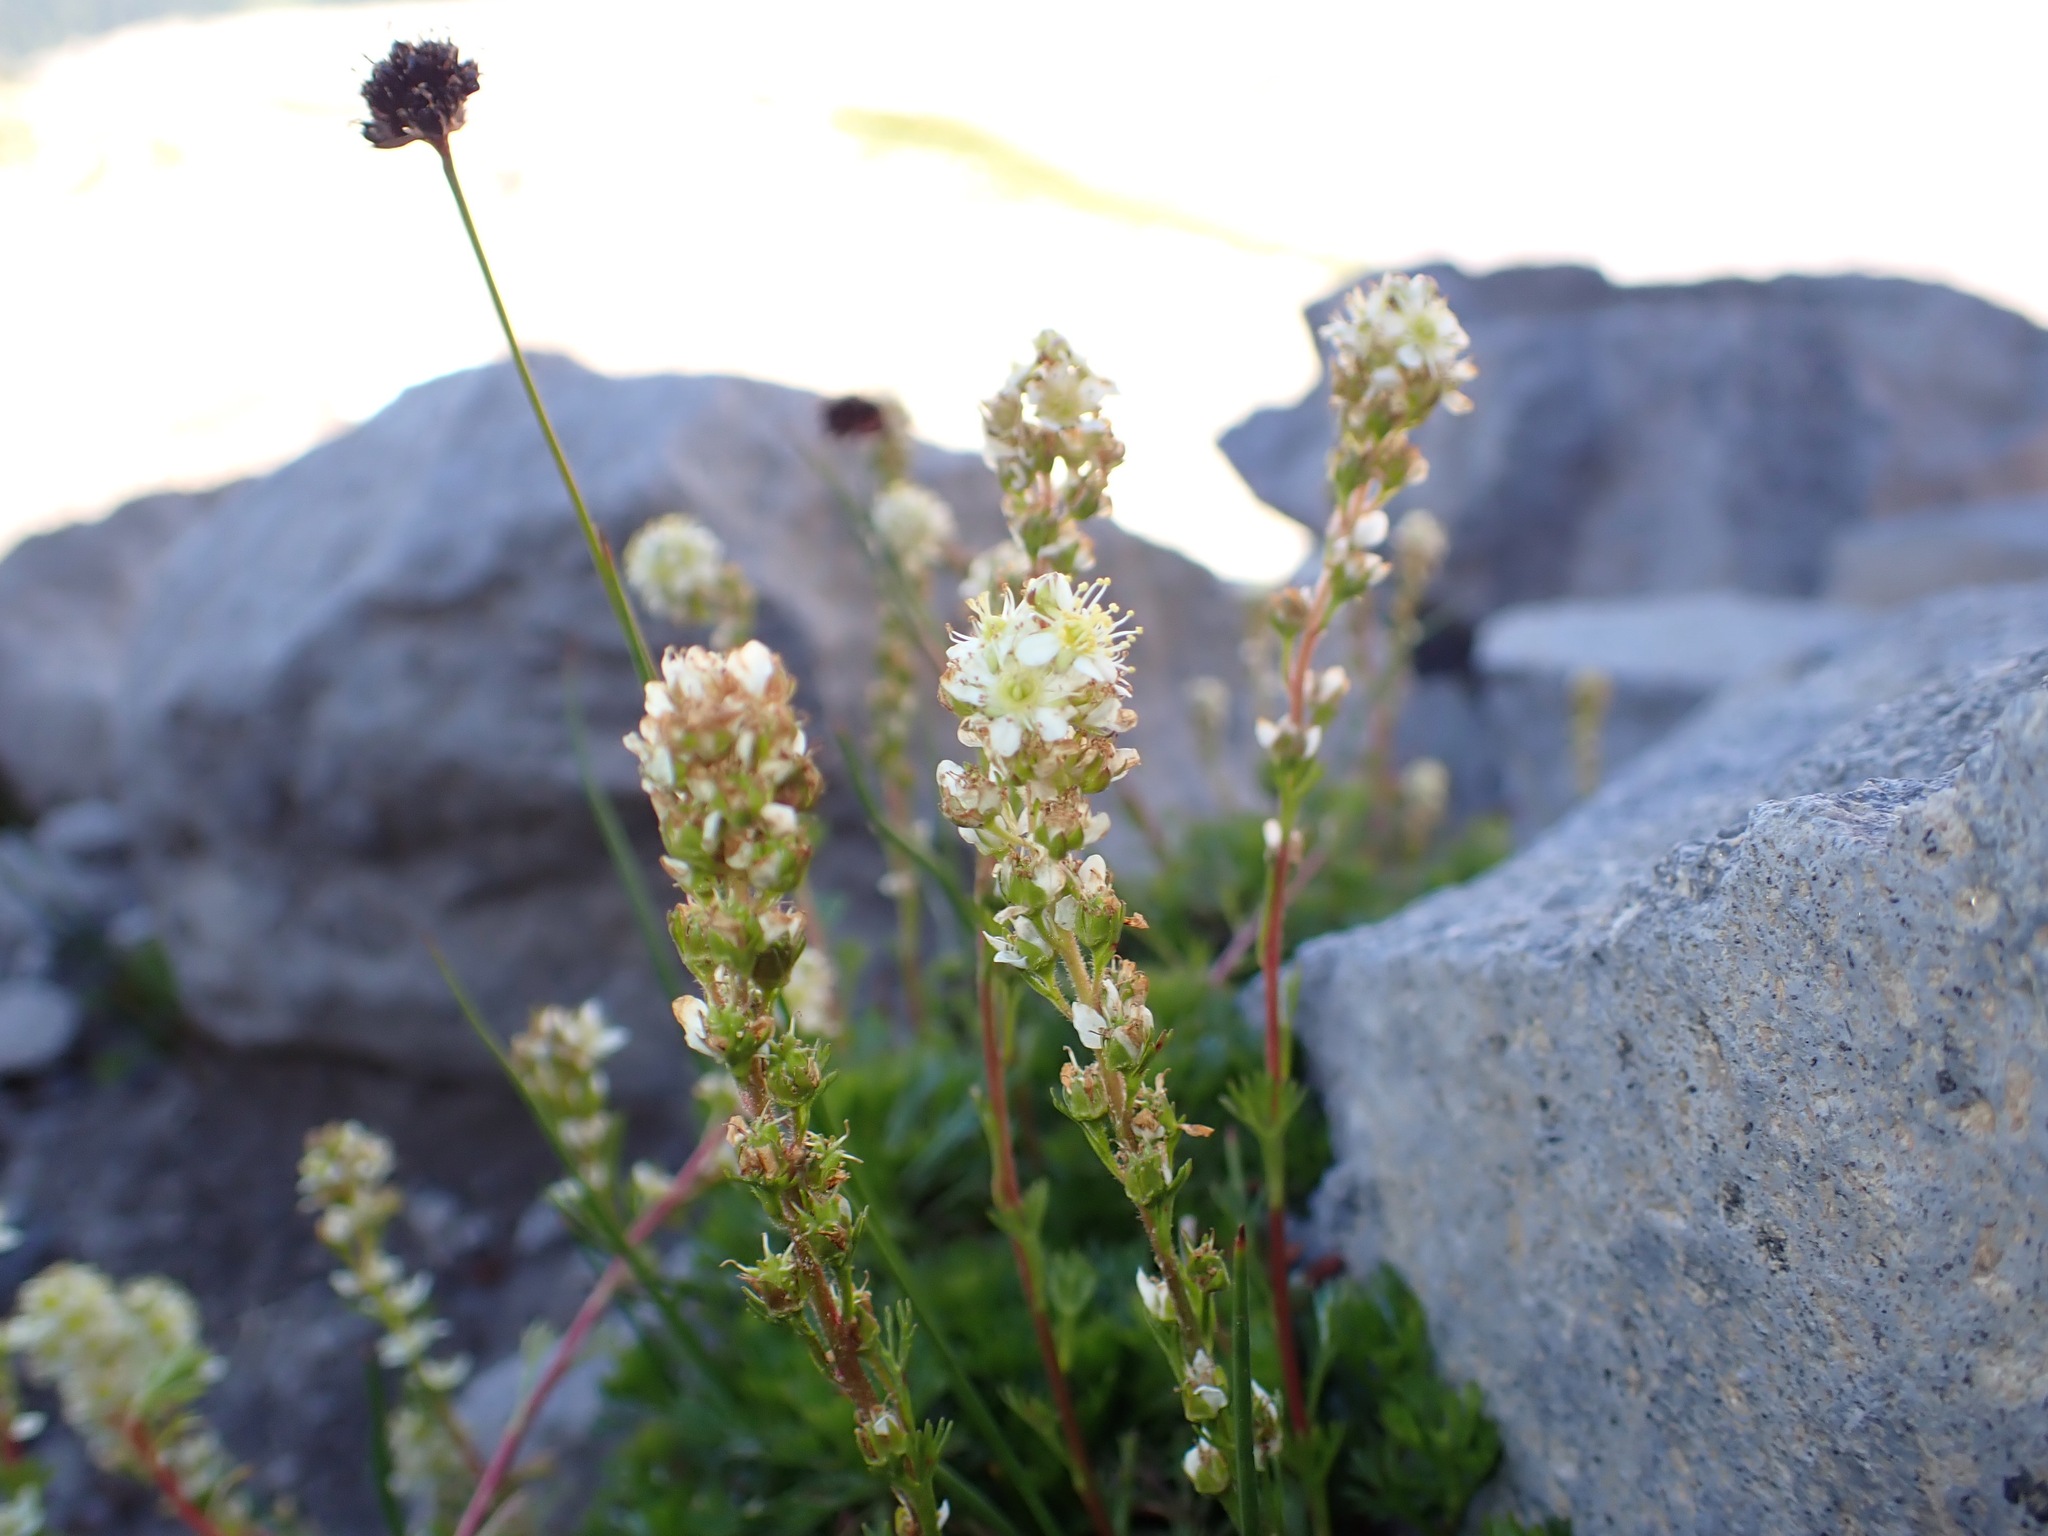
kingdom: Plantae
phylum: Tracheophyta
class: Magnoliopsida
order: Rosales
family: Rosaceae
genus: Luetkea
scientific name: Luetkea pectinata
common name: Partridgefoot
